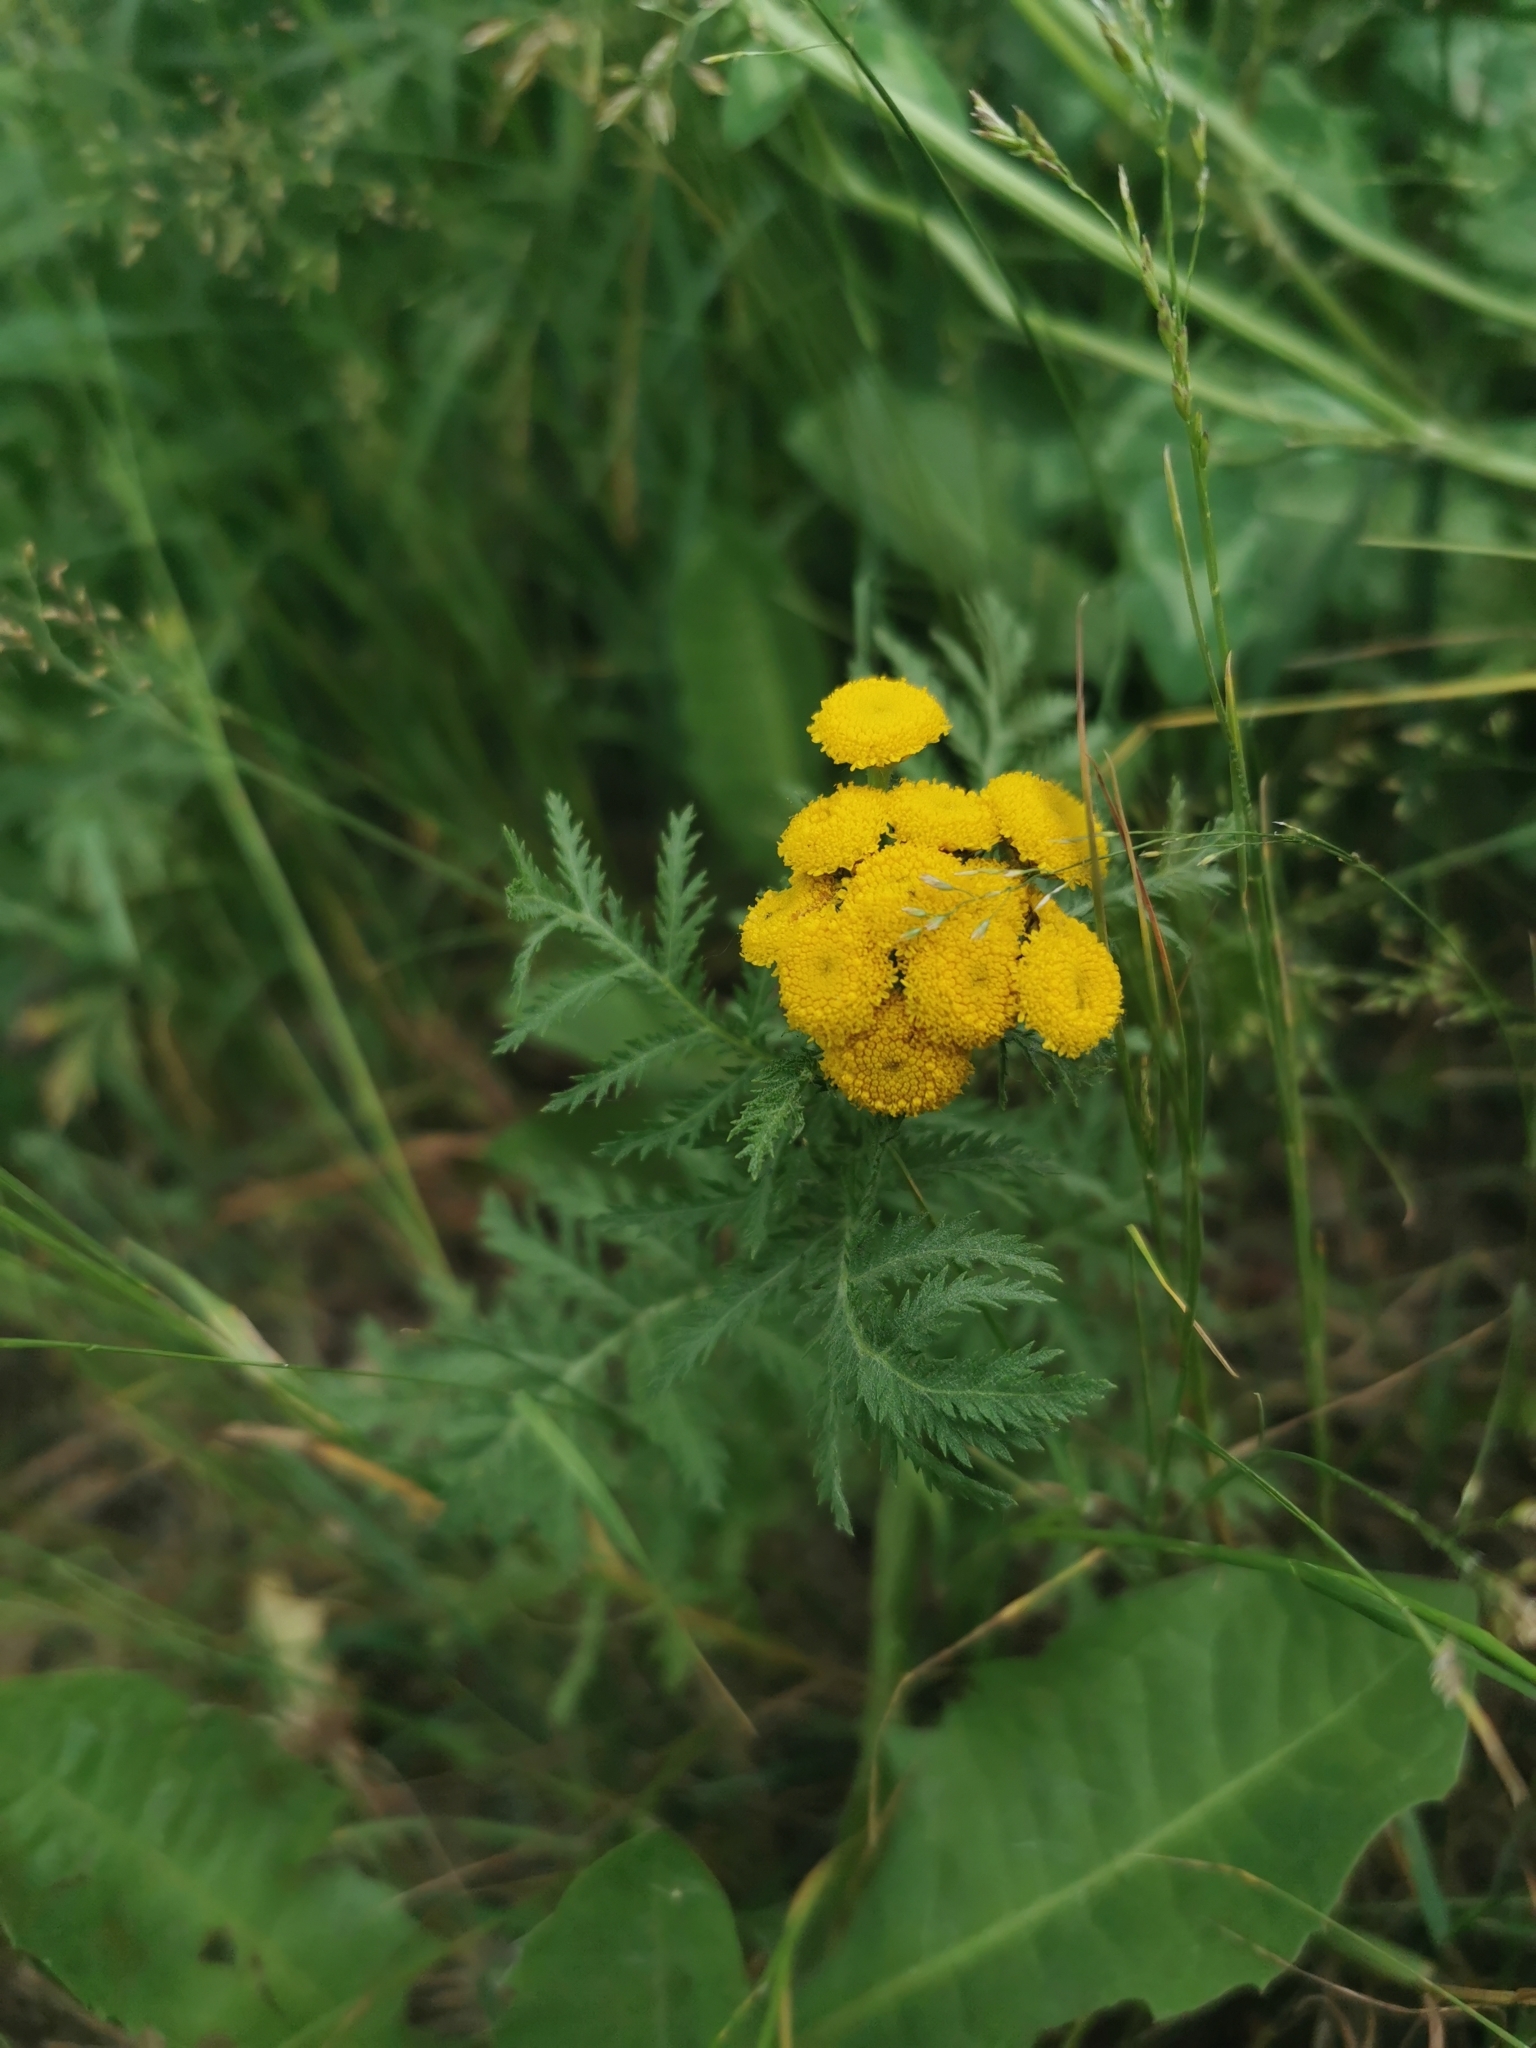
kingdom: Plantae
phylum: Tracheophyta
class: Magnoliopsida
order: Asterales
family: Asteraceae
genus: Tanacetum
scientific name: Tanacetum vulgare
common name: Common tansy
